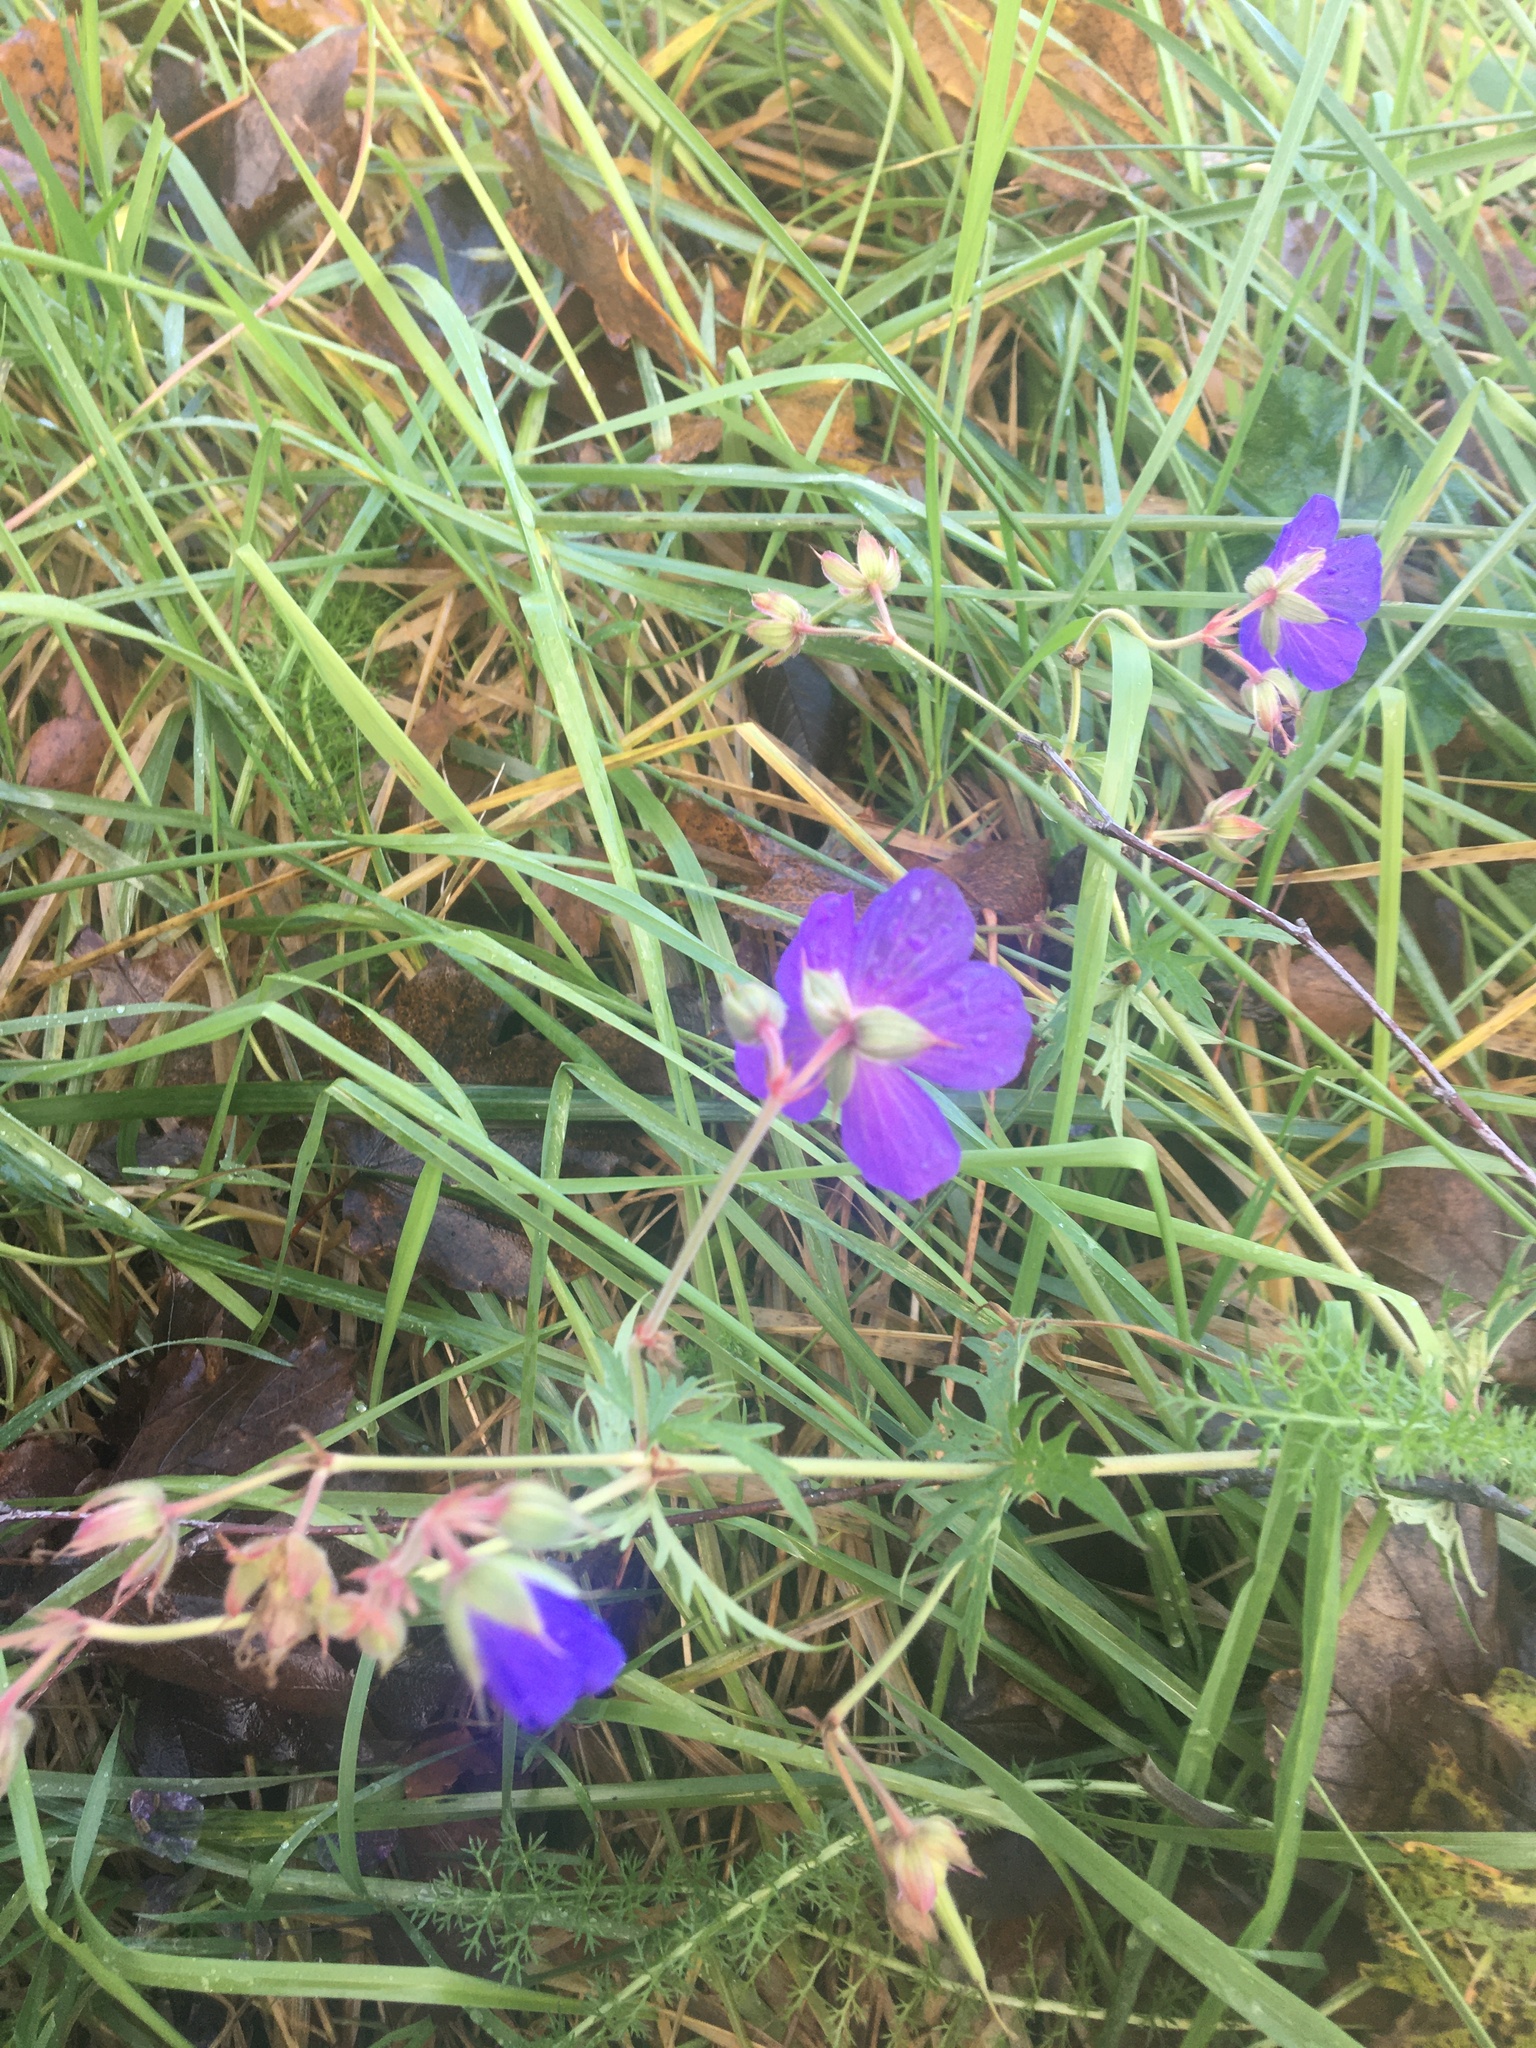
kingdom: Plantae
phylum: Tracheophyta
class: Magnoliopsida
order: Geraniales
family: Geraniaceae
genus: Geranium
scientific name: Geranium pratense
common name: Meadow crane's-bill
